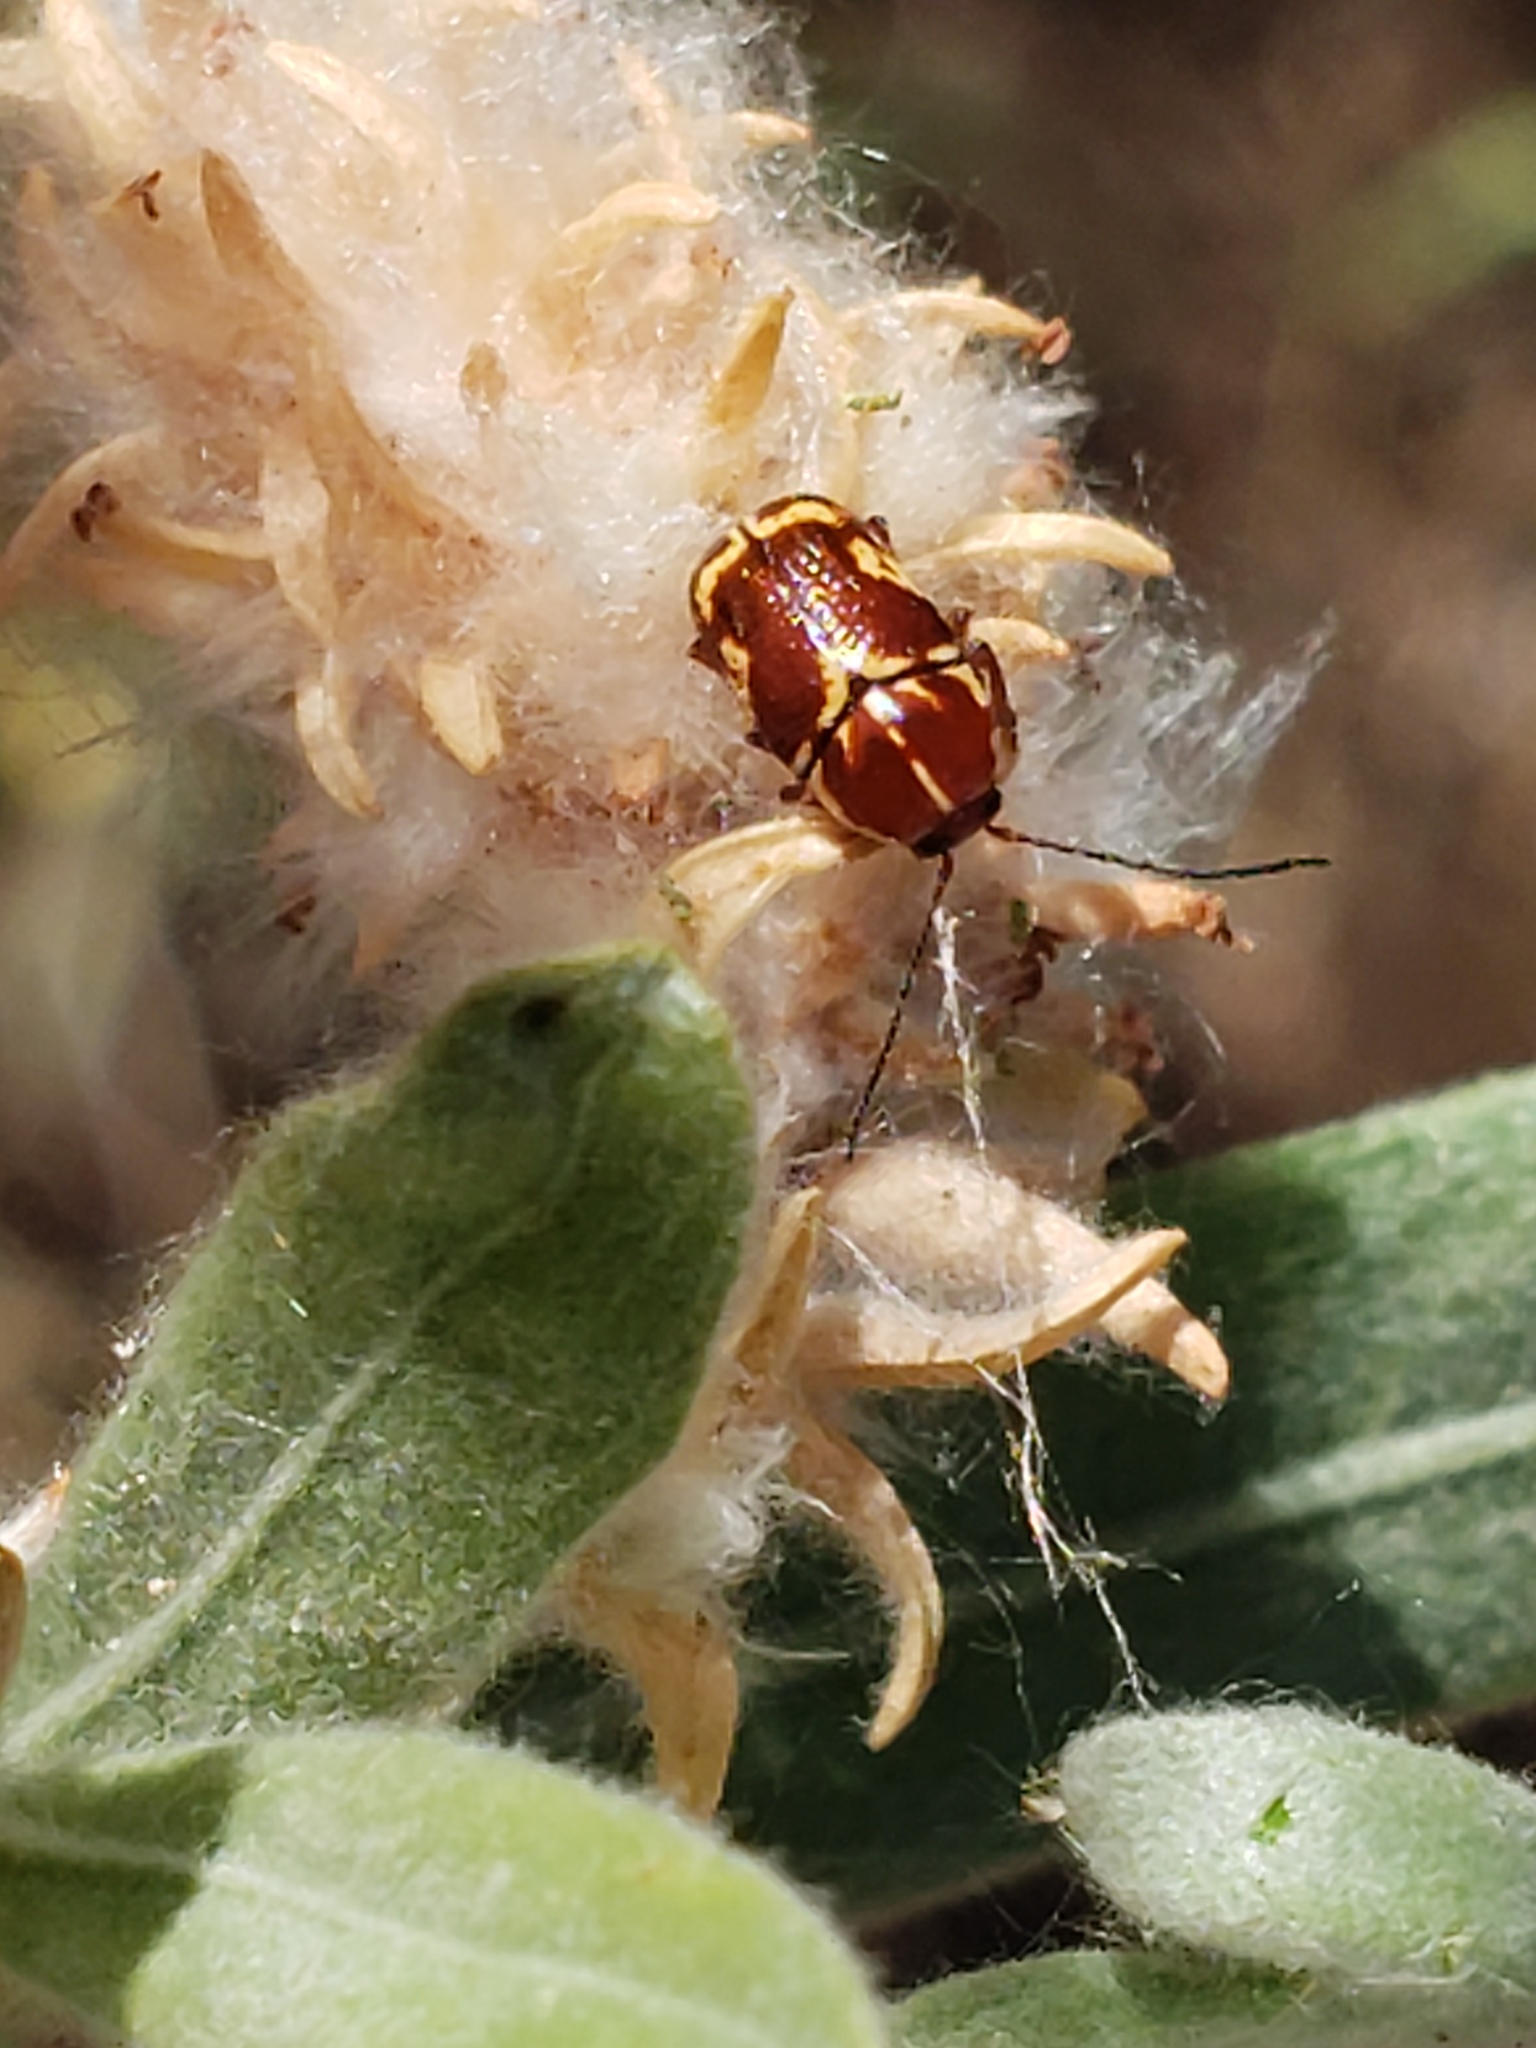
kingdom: Animalia
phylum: Arthropoda
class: Insecta
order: Coleoptera
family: Chrysomelidae
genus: Cryptocephalus
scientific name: Cryptocephalus castaneus
